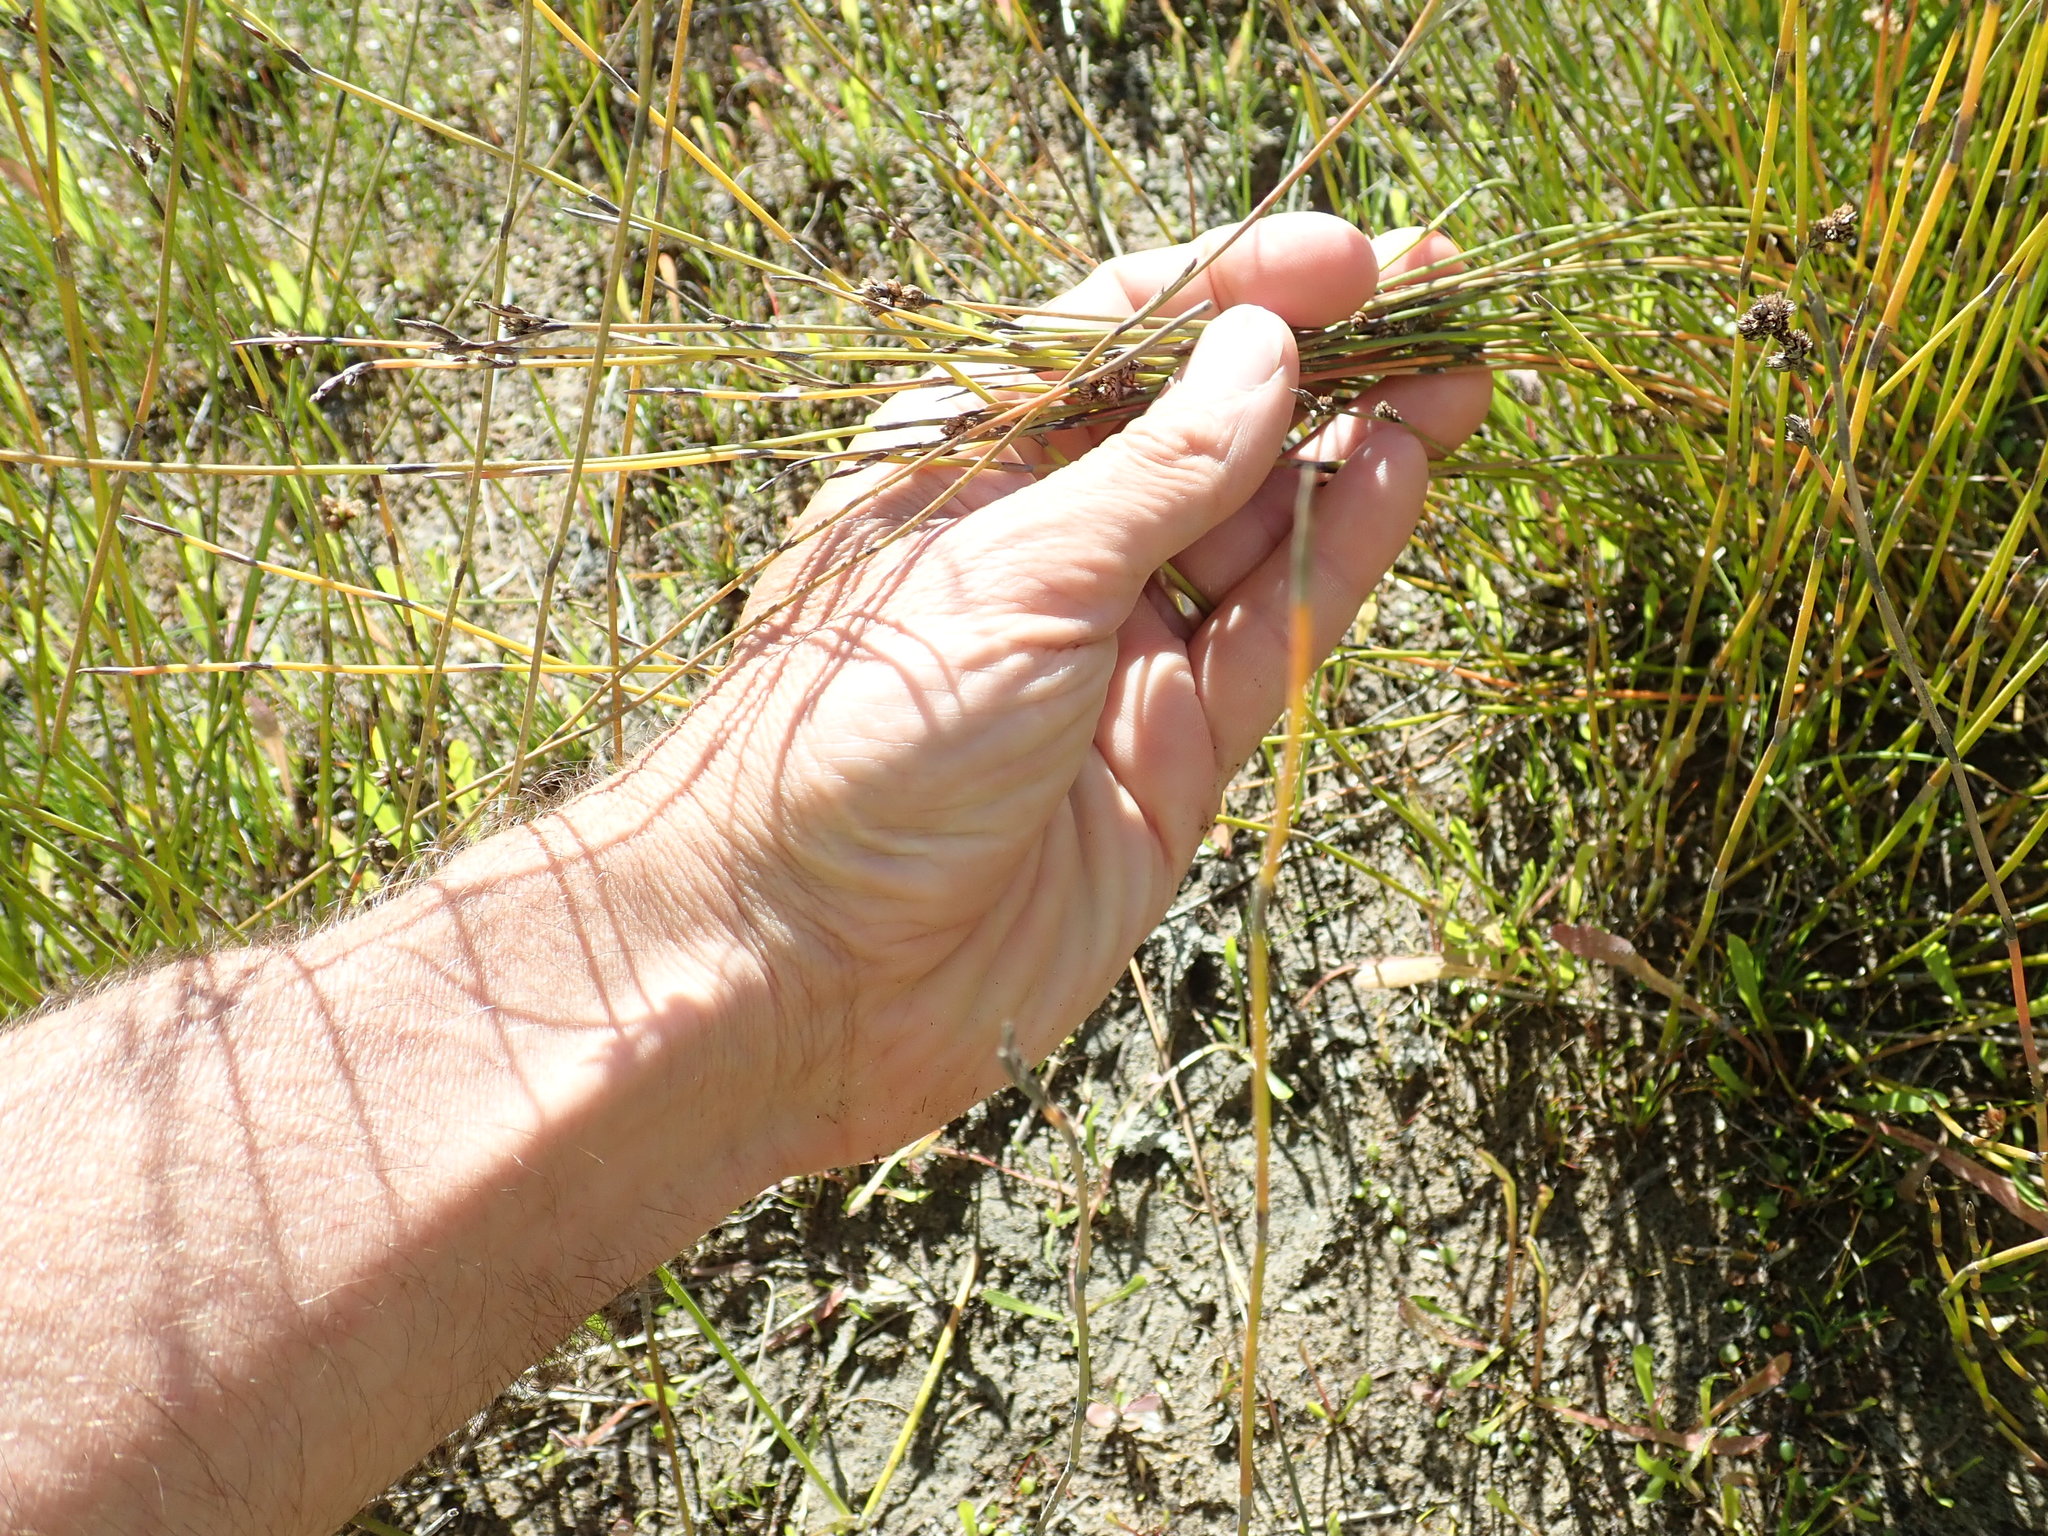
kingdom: Plantae
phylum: Tracheophyta
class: Liliopsida
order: Poales
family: Restionaceae
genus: Apodasmia
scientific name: Apodasmia similis
